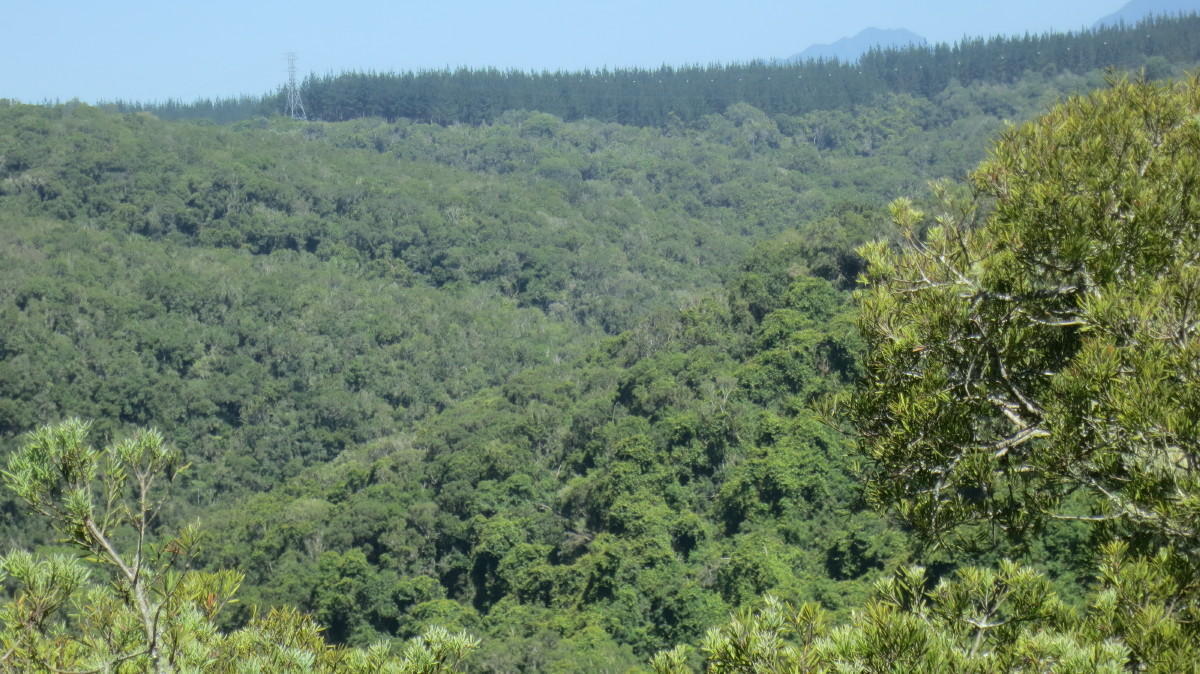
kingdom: Plantae
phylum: Tracheophyta
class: Pinopsida
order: Pinales
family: Podocarpaceae
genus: Afrocarpus
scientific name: Afrocarpus falcatus
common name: Bastard yellowwood
